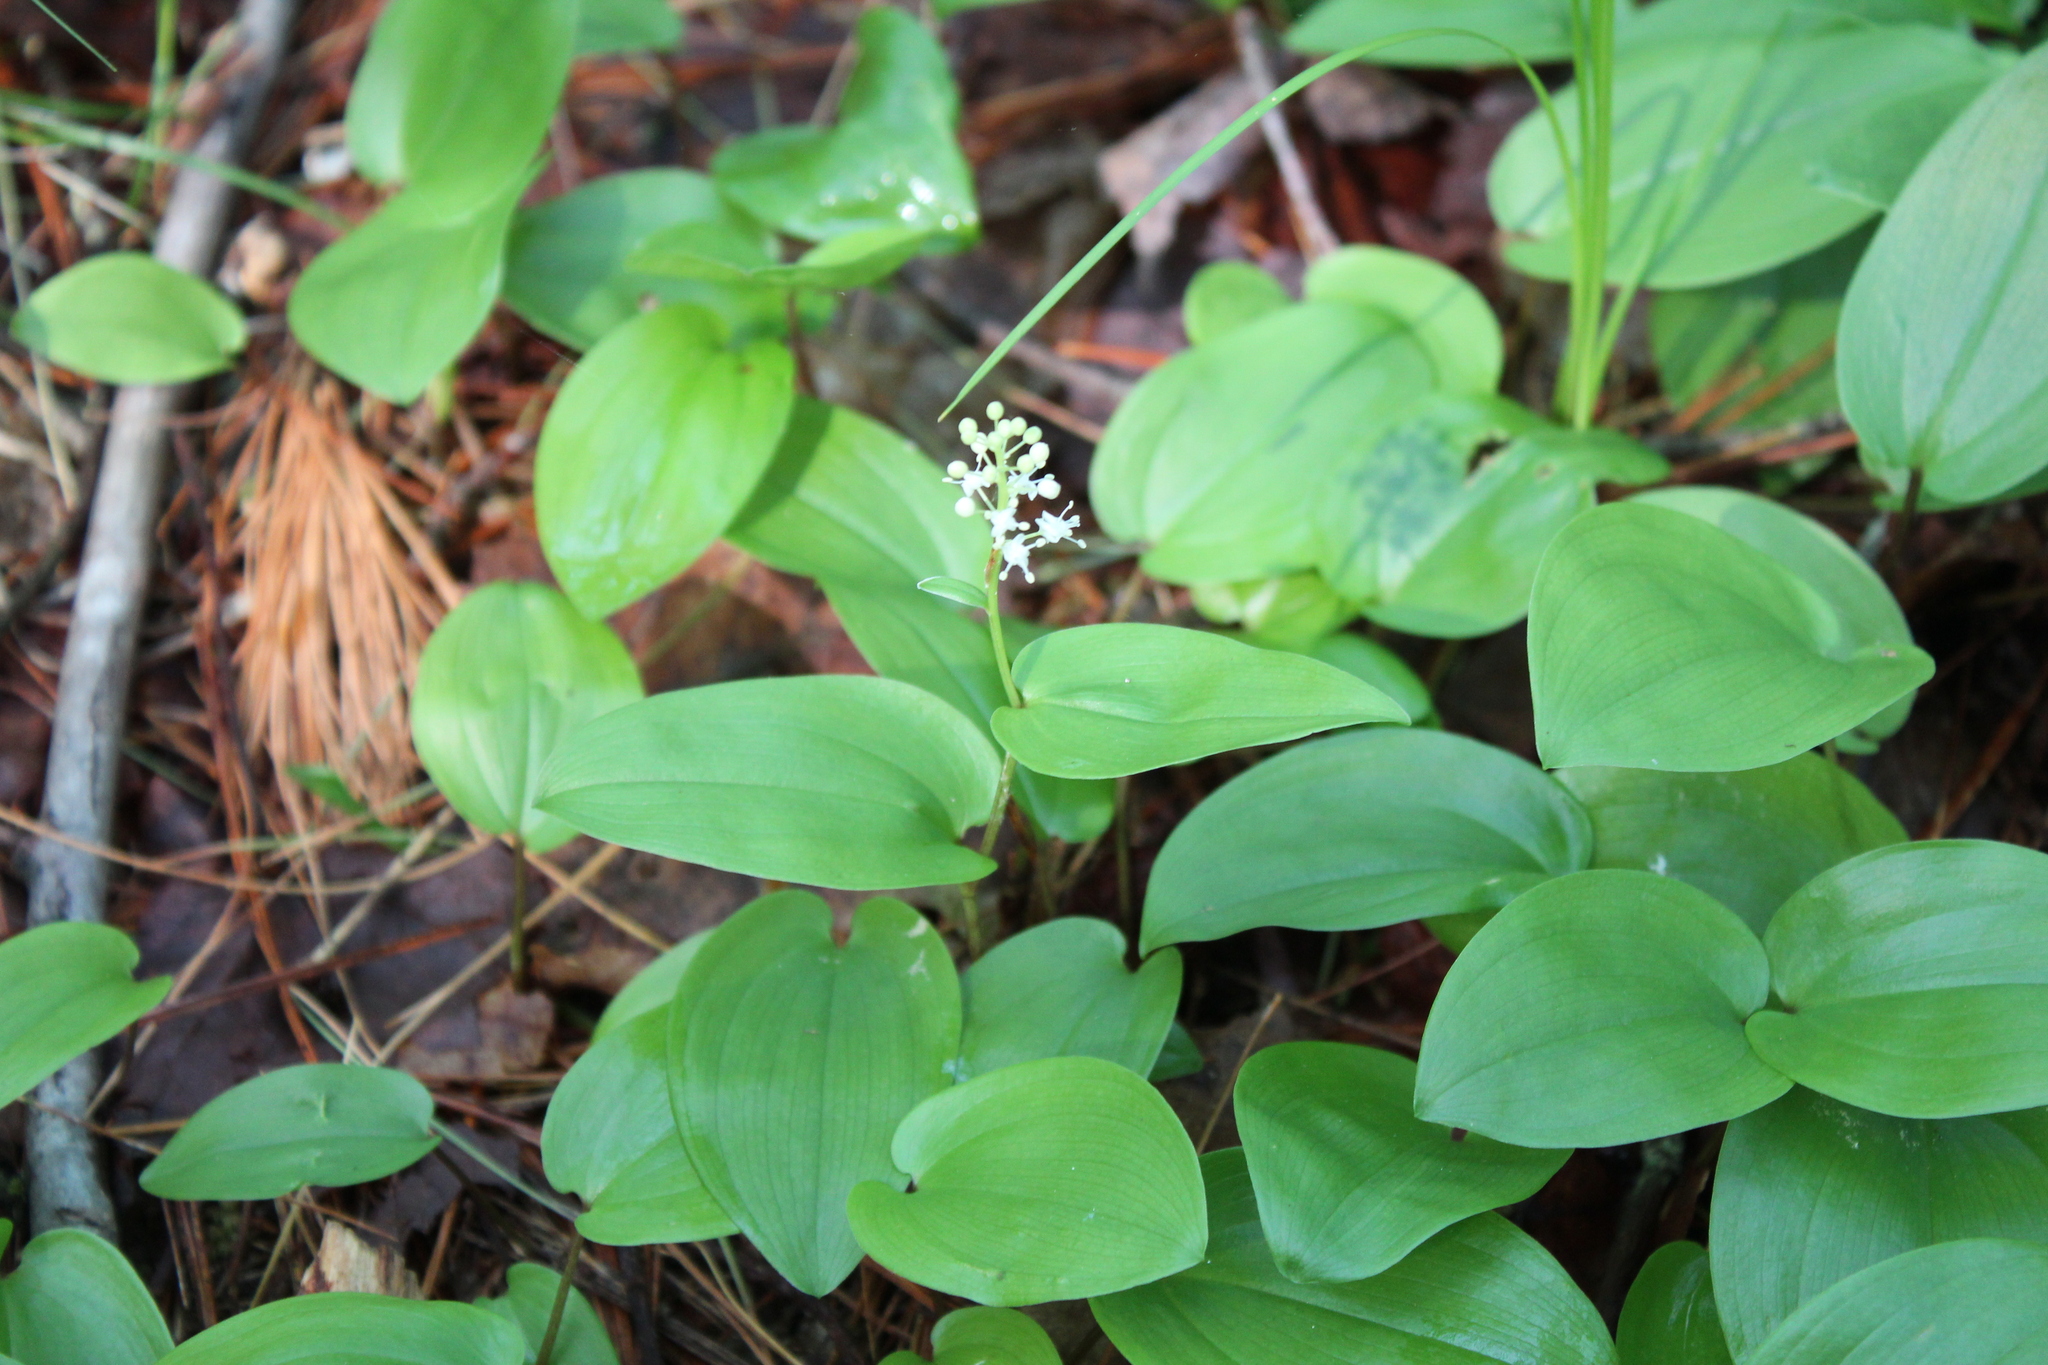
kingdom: Plantae
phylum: Tracheophyta
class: Liliopsida
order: Asparagales
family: Asparagaceae
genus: Maianthemum
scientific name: Maianthemum canadense
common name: False lily-of-the-valley
